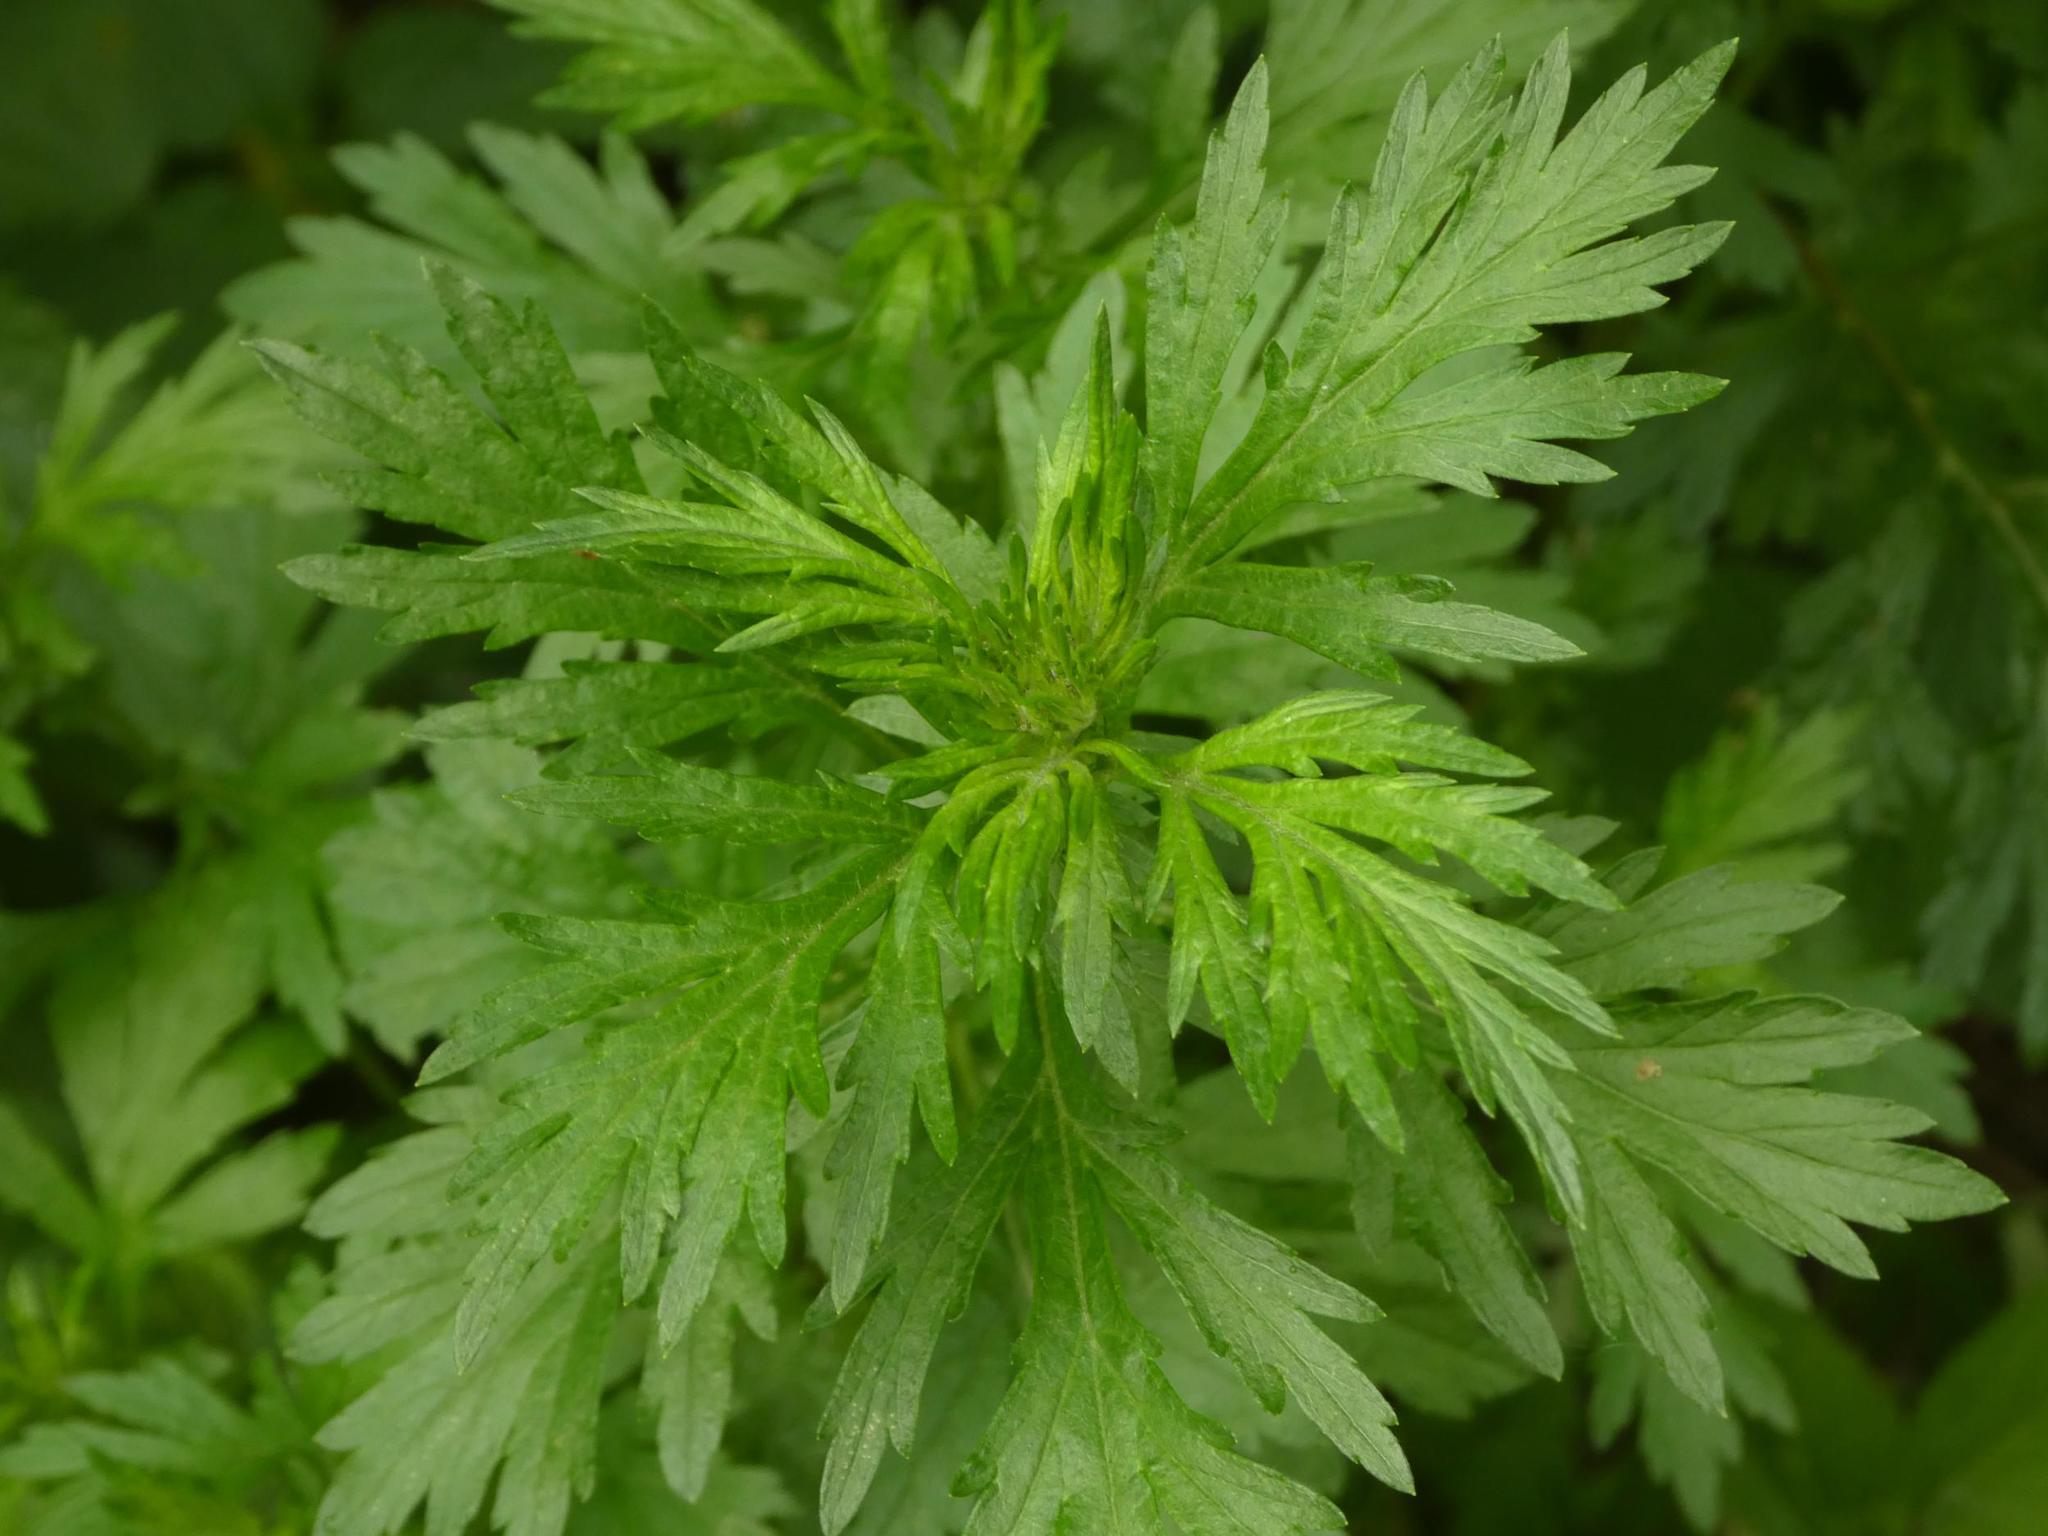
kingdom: Plantae
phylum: Tracheophyta
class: Magnoliopsida
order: Asterales
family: Asteraceae
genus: Artemisia
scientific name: Artemisia vulgaris
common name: Mugwort
